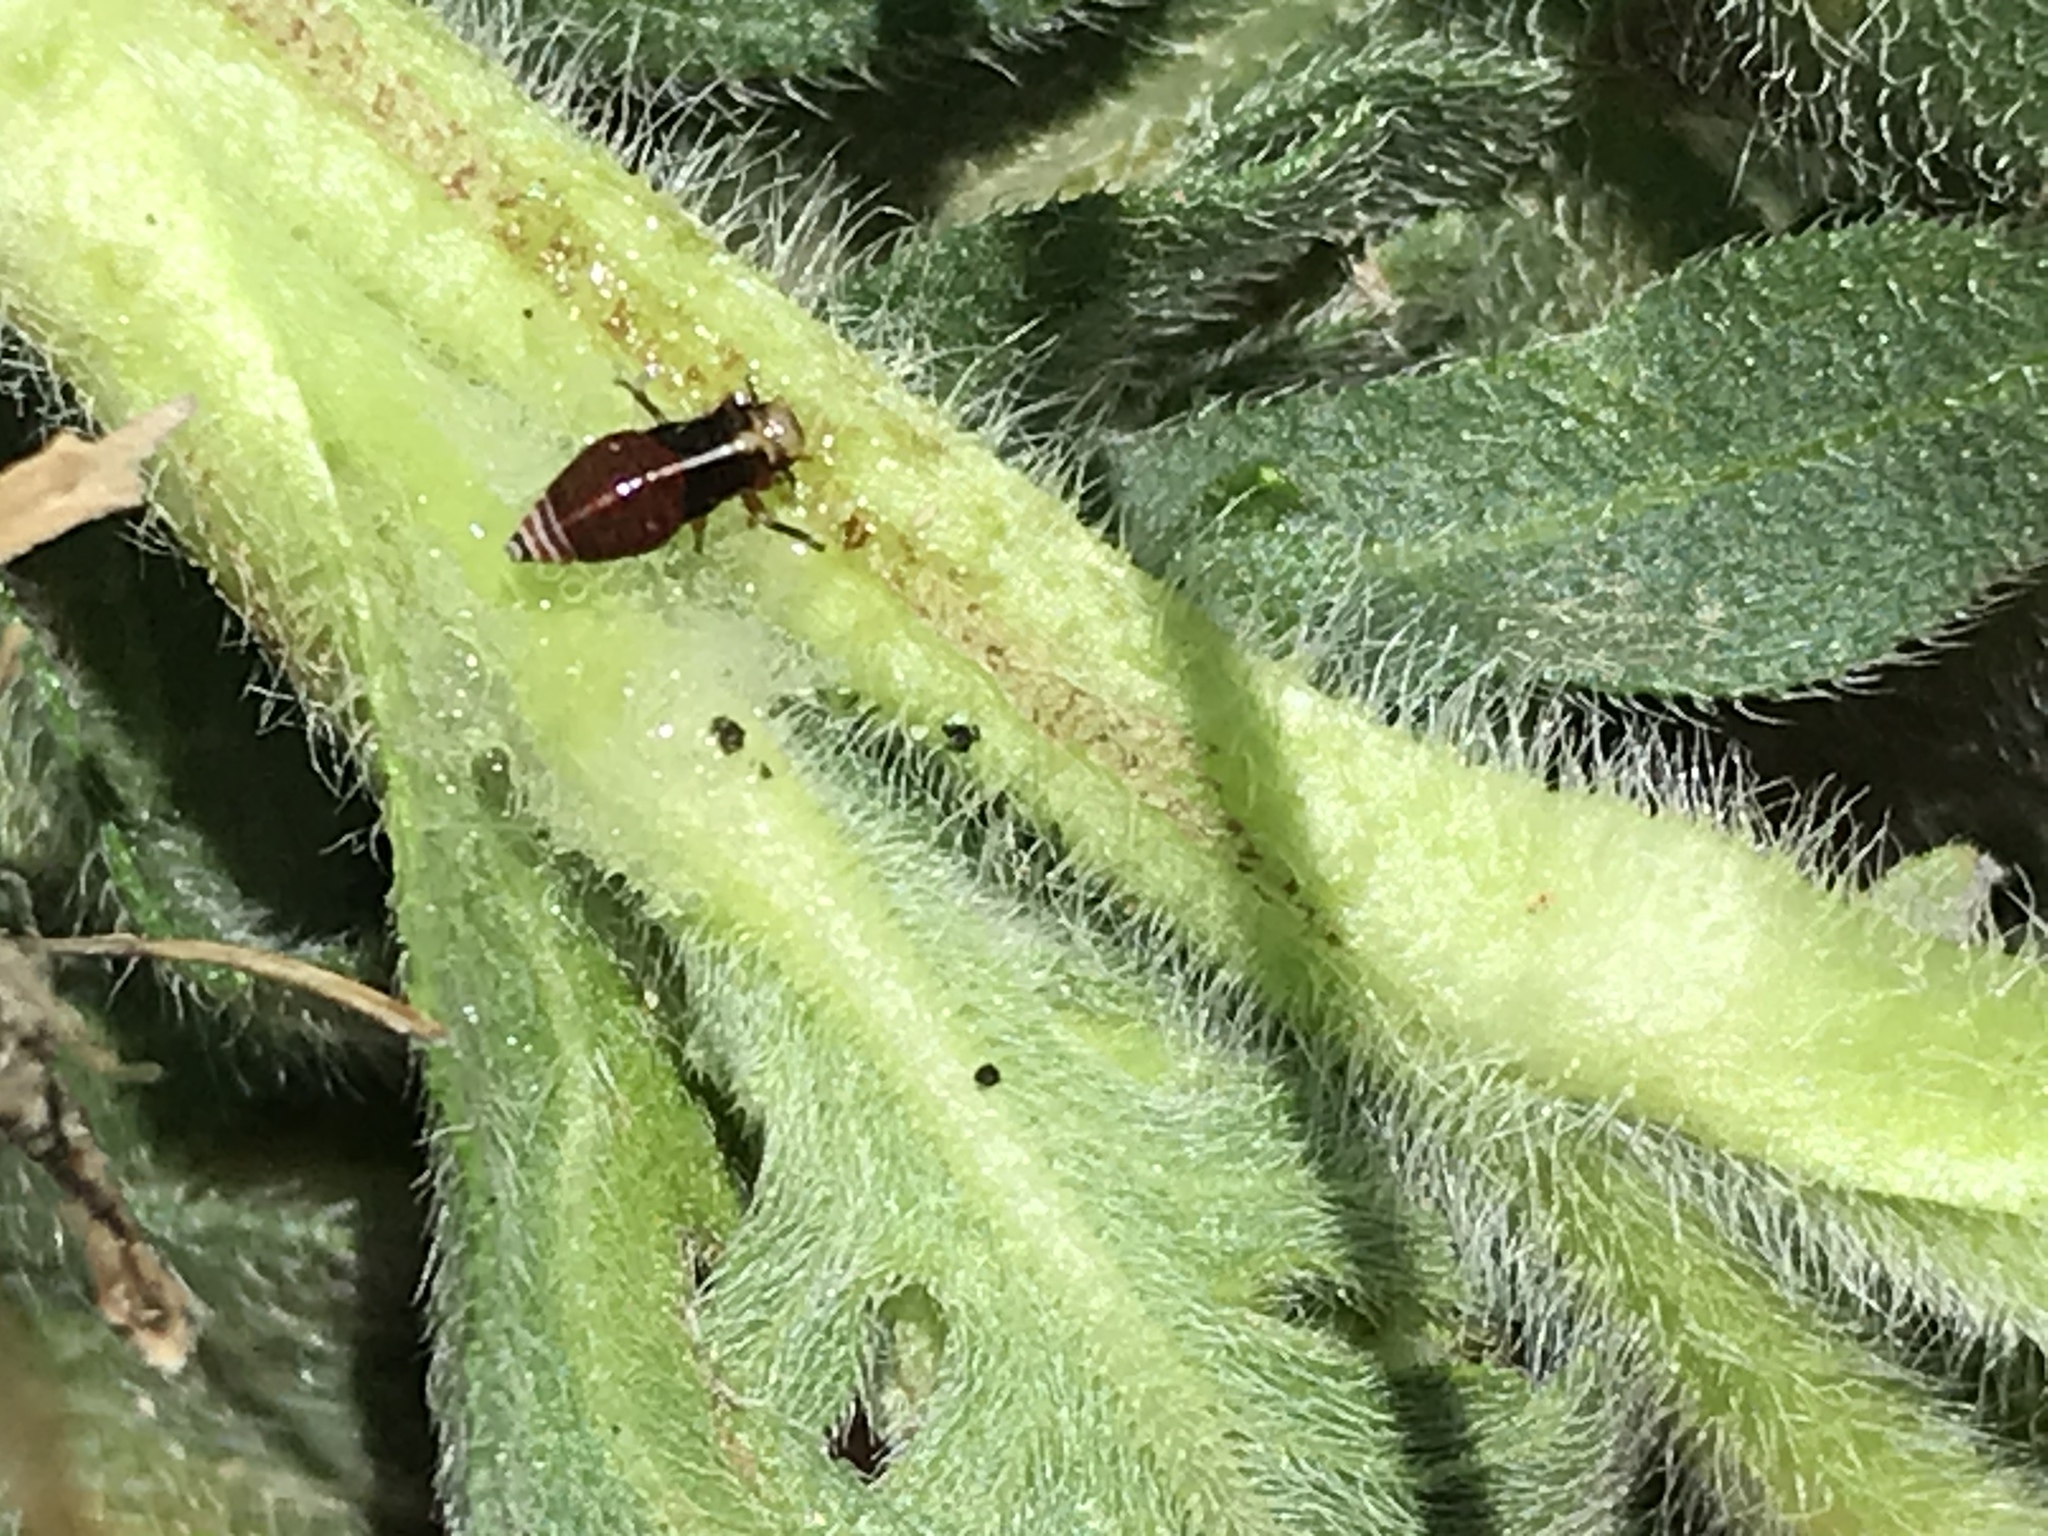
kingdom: Animalia
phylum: Arthropoda
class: Insecta
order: Hemiptera
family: Aphrophoridae
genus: Lepyronia
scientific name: Lepyronia gibbosa
